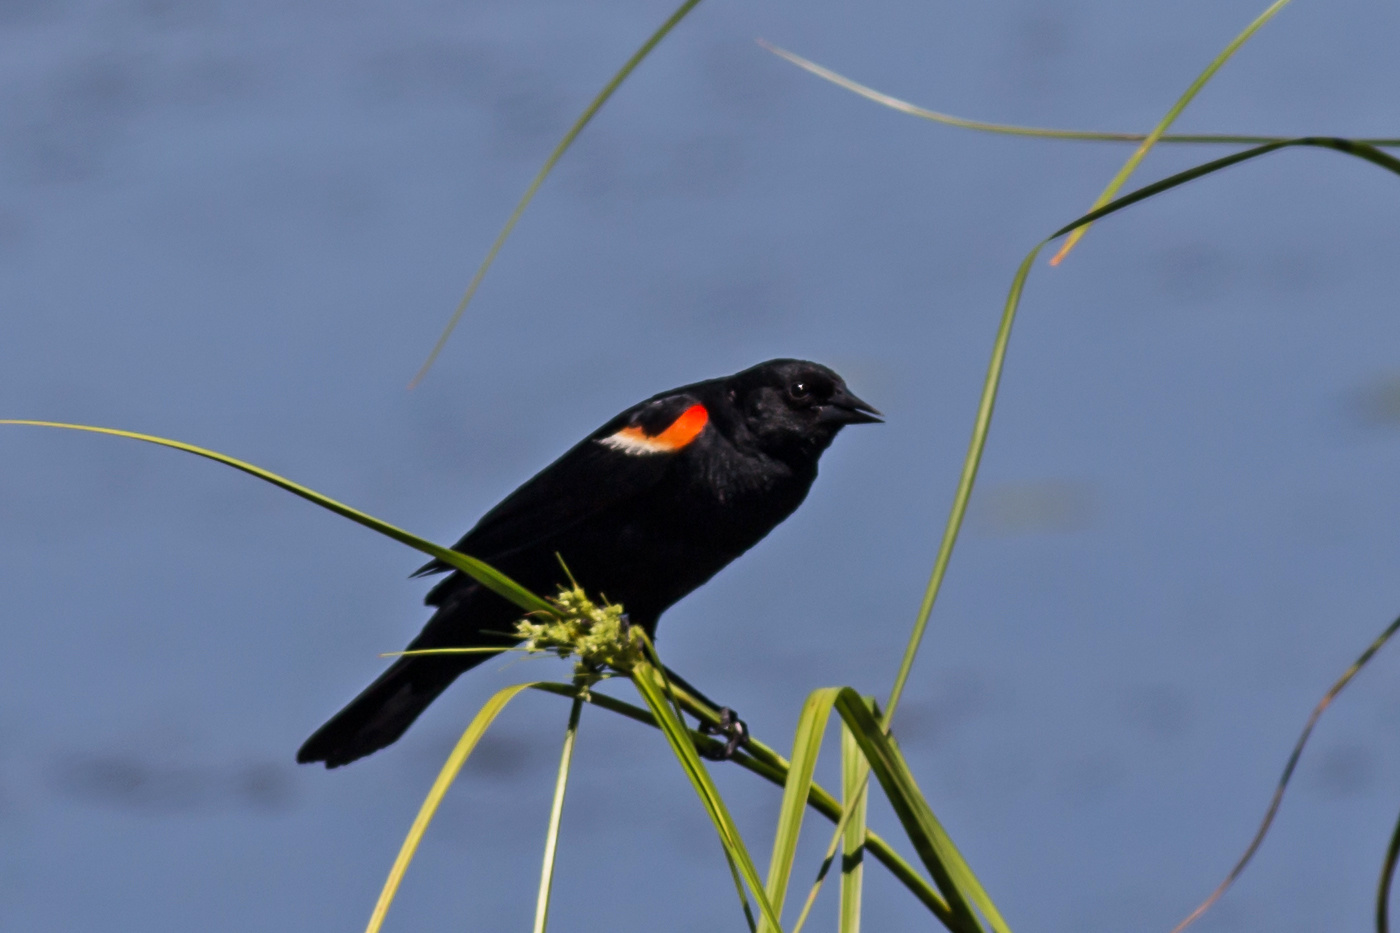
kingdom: Animalia
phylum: Chordata
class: Aves
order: Passeriformes
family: Icteridae
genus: Agelaius
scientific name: Agelaius phoeniceus
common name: Red-winged blackbird
